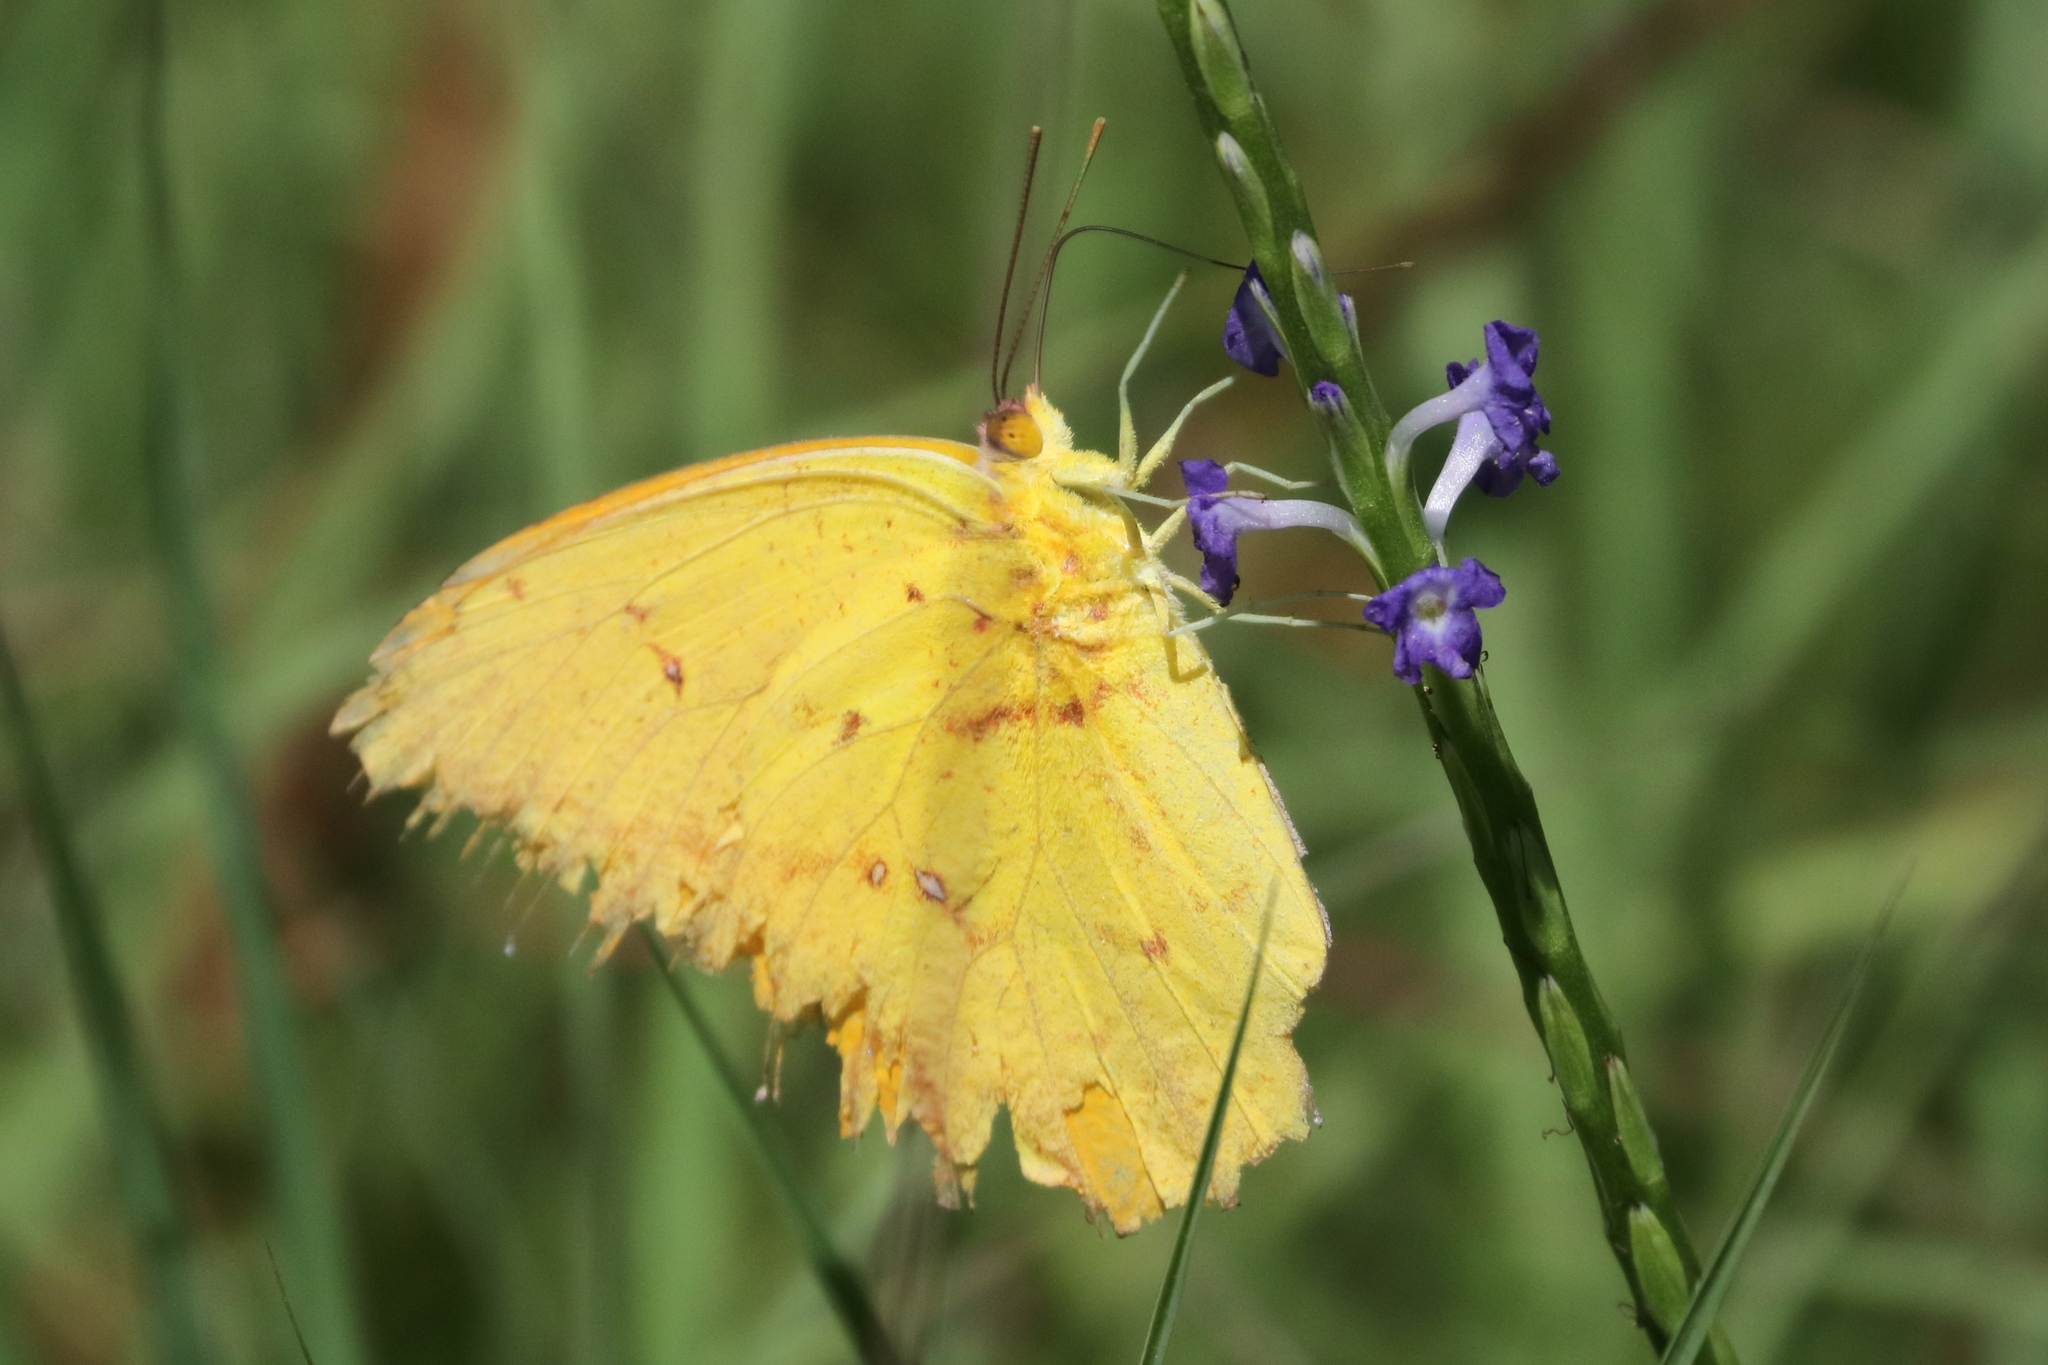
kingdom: Animalia
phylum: Arthropoda
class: Insecta
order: Lepidoptera
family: Pieridae
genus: Phoebis
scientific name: Phoebis agarithe
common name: Large orange sulphur
